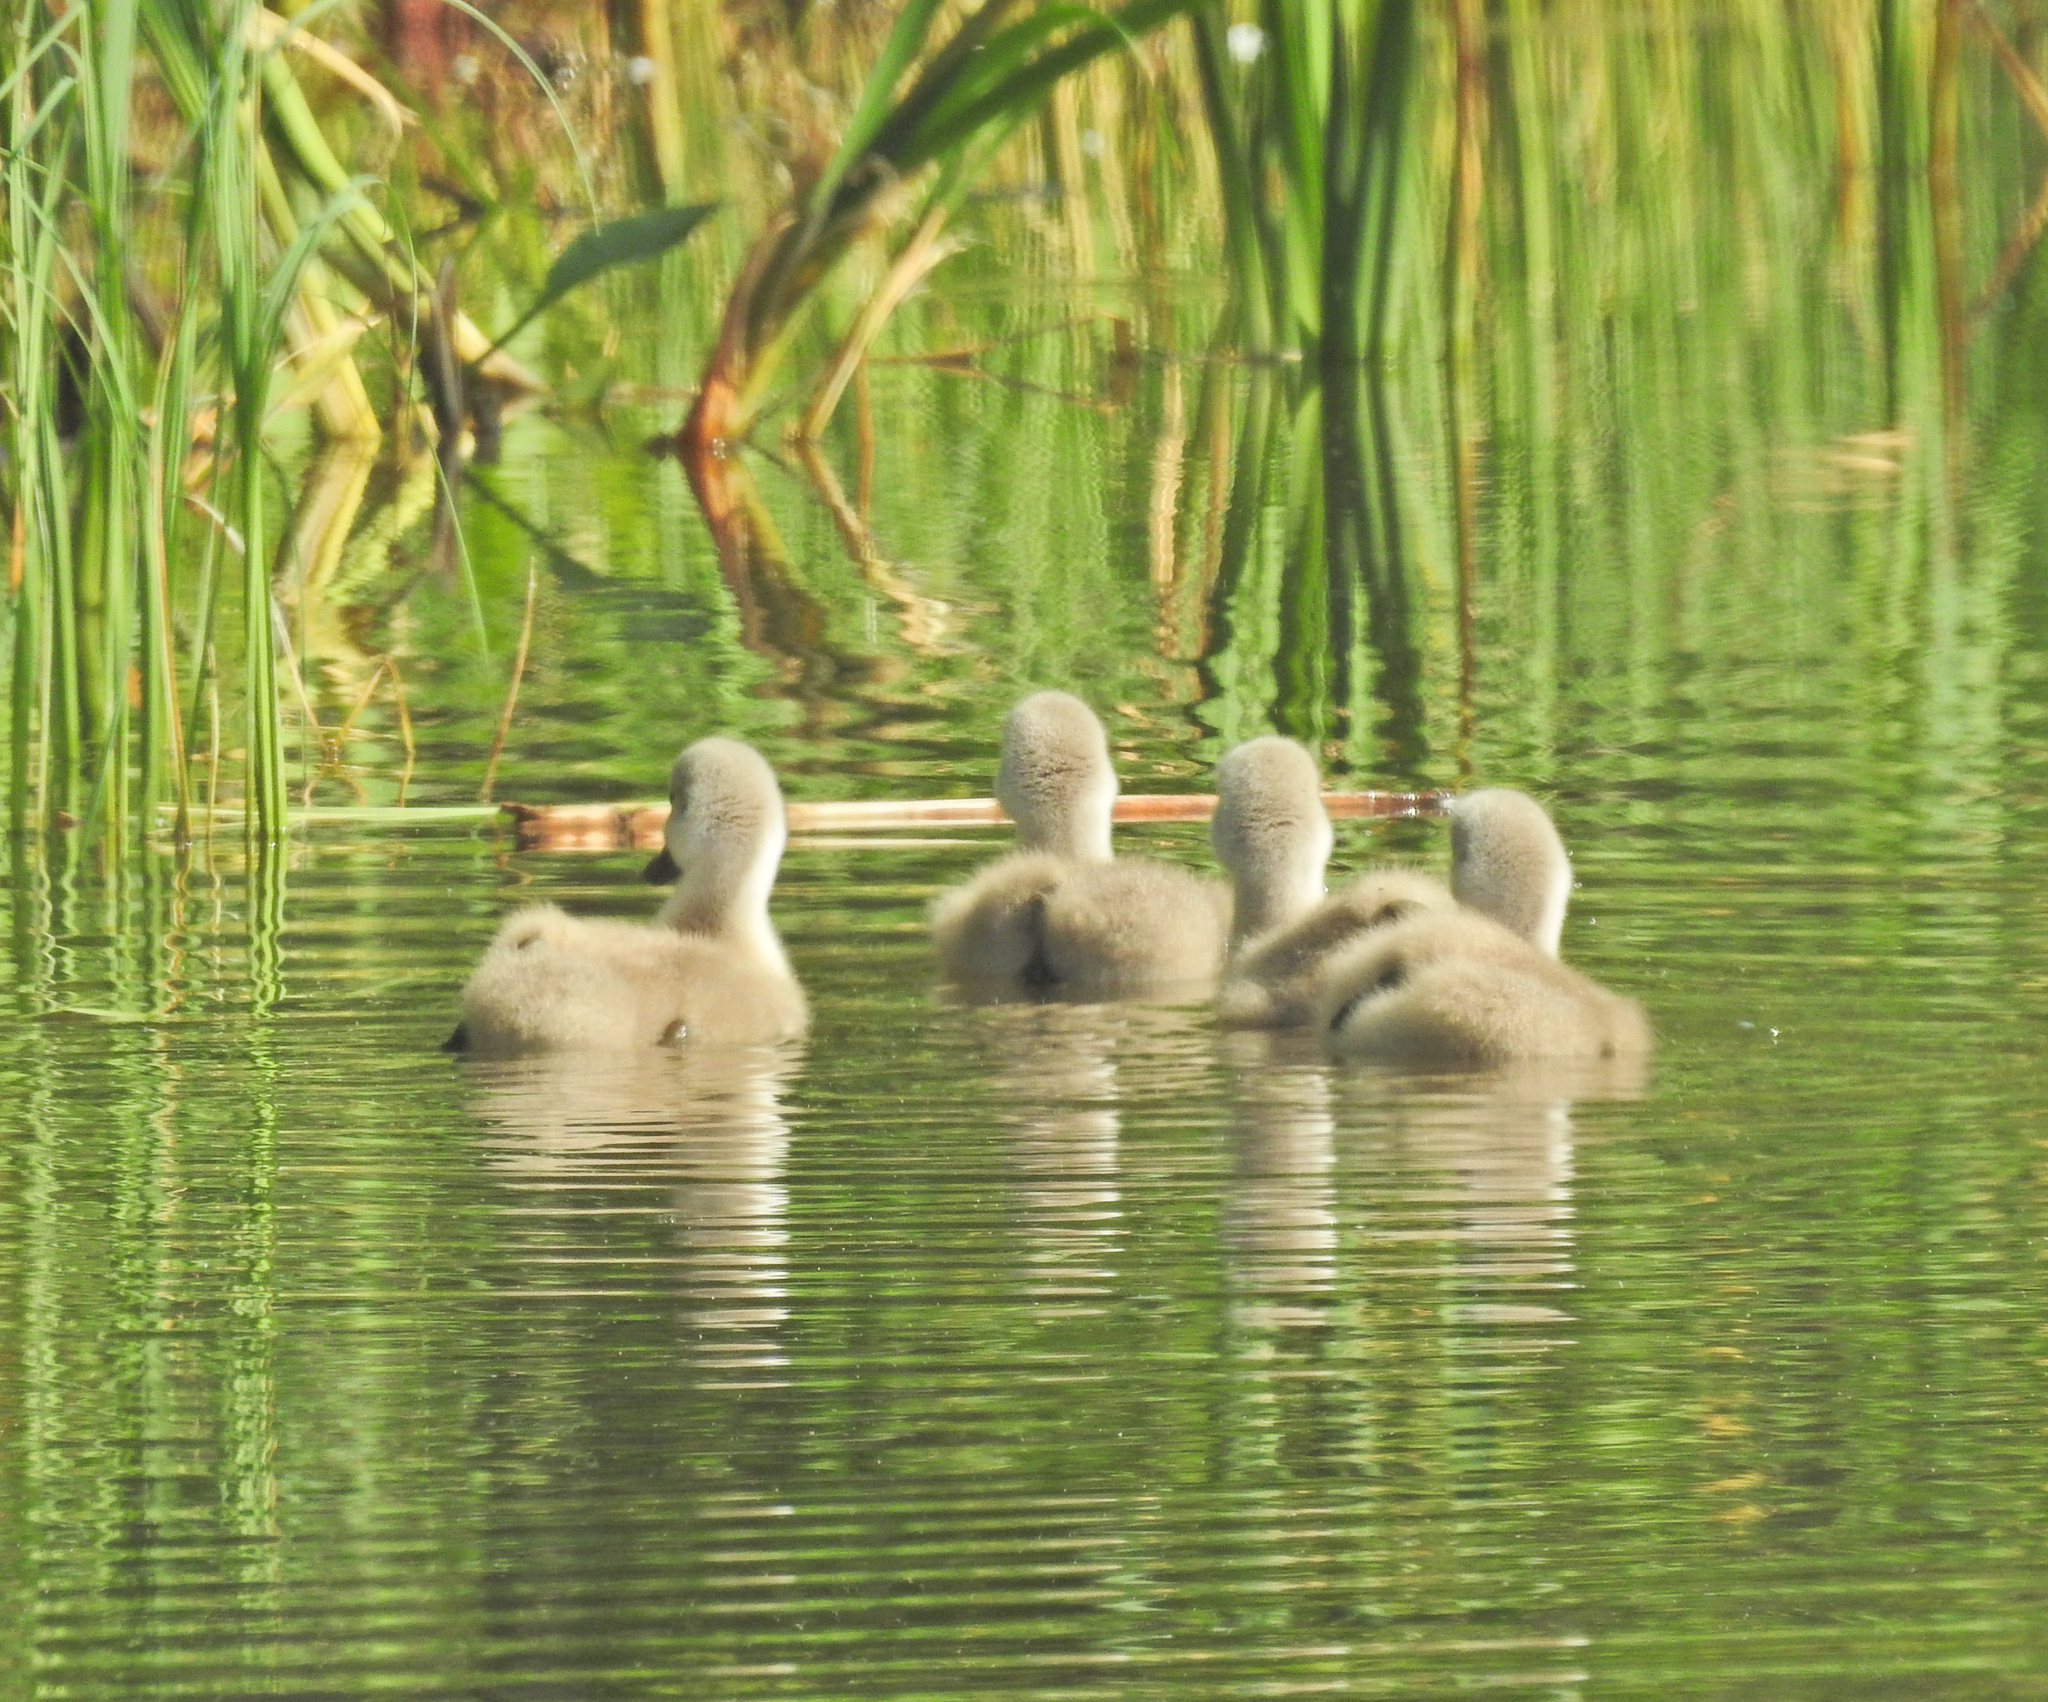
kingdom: Animalia
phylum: Chordata
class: Aves
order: Anseriformes
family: Anatidae
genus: Cygnus
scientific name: Cygnus olor
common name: Mute swan
